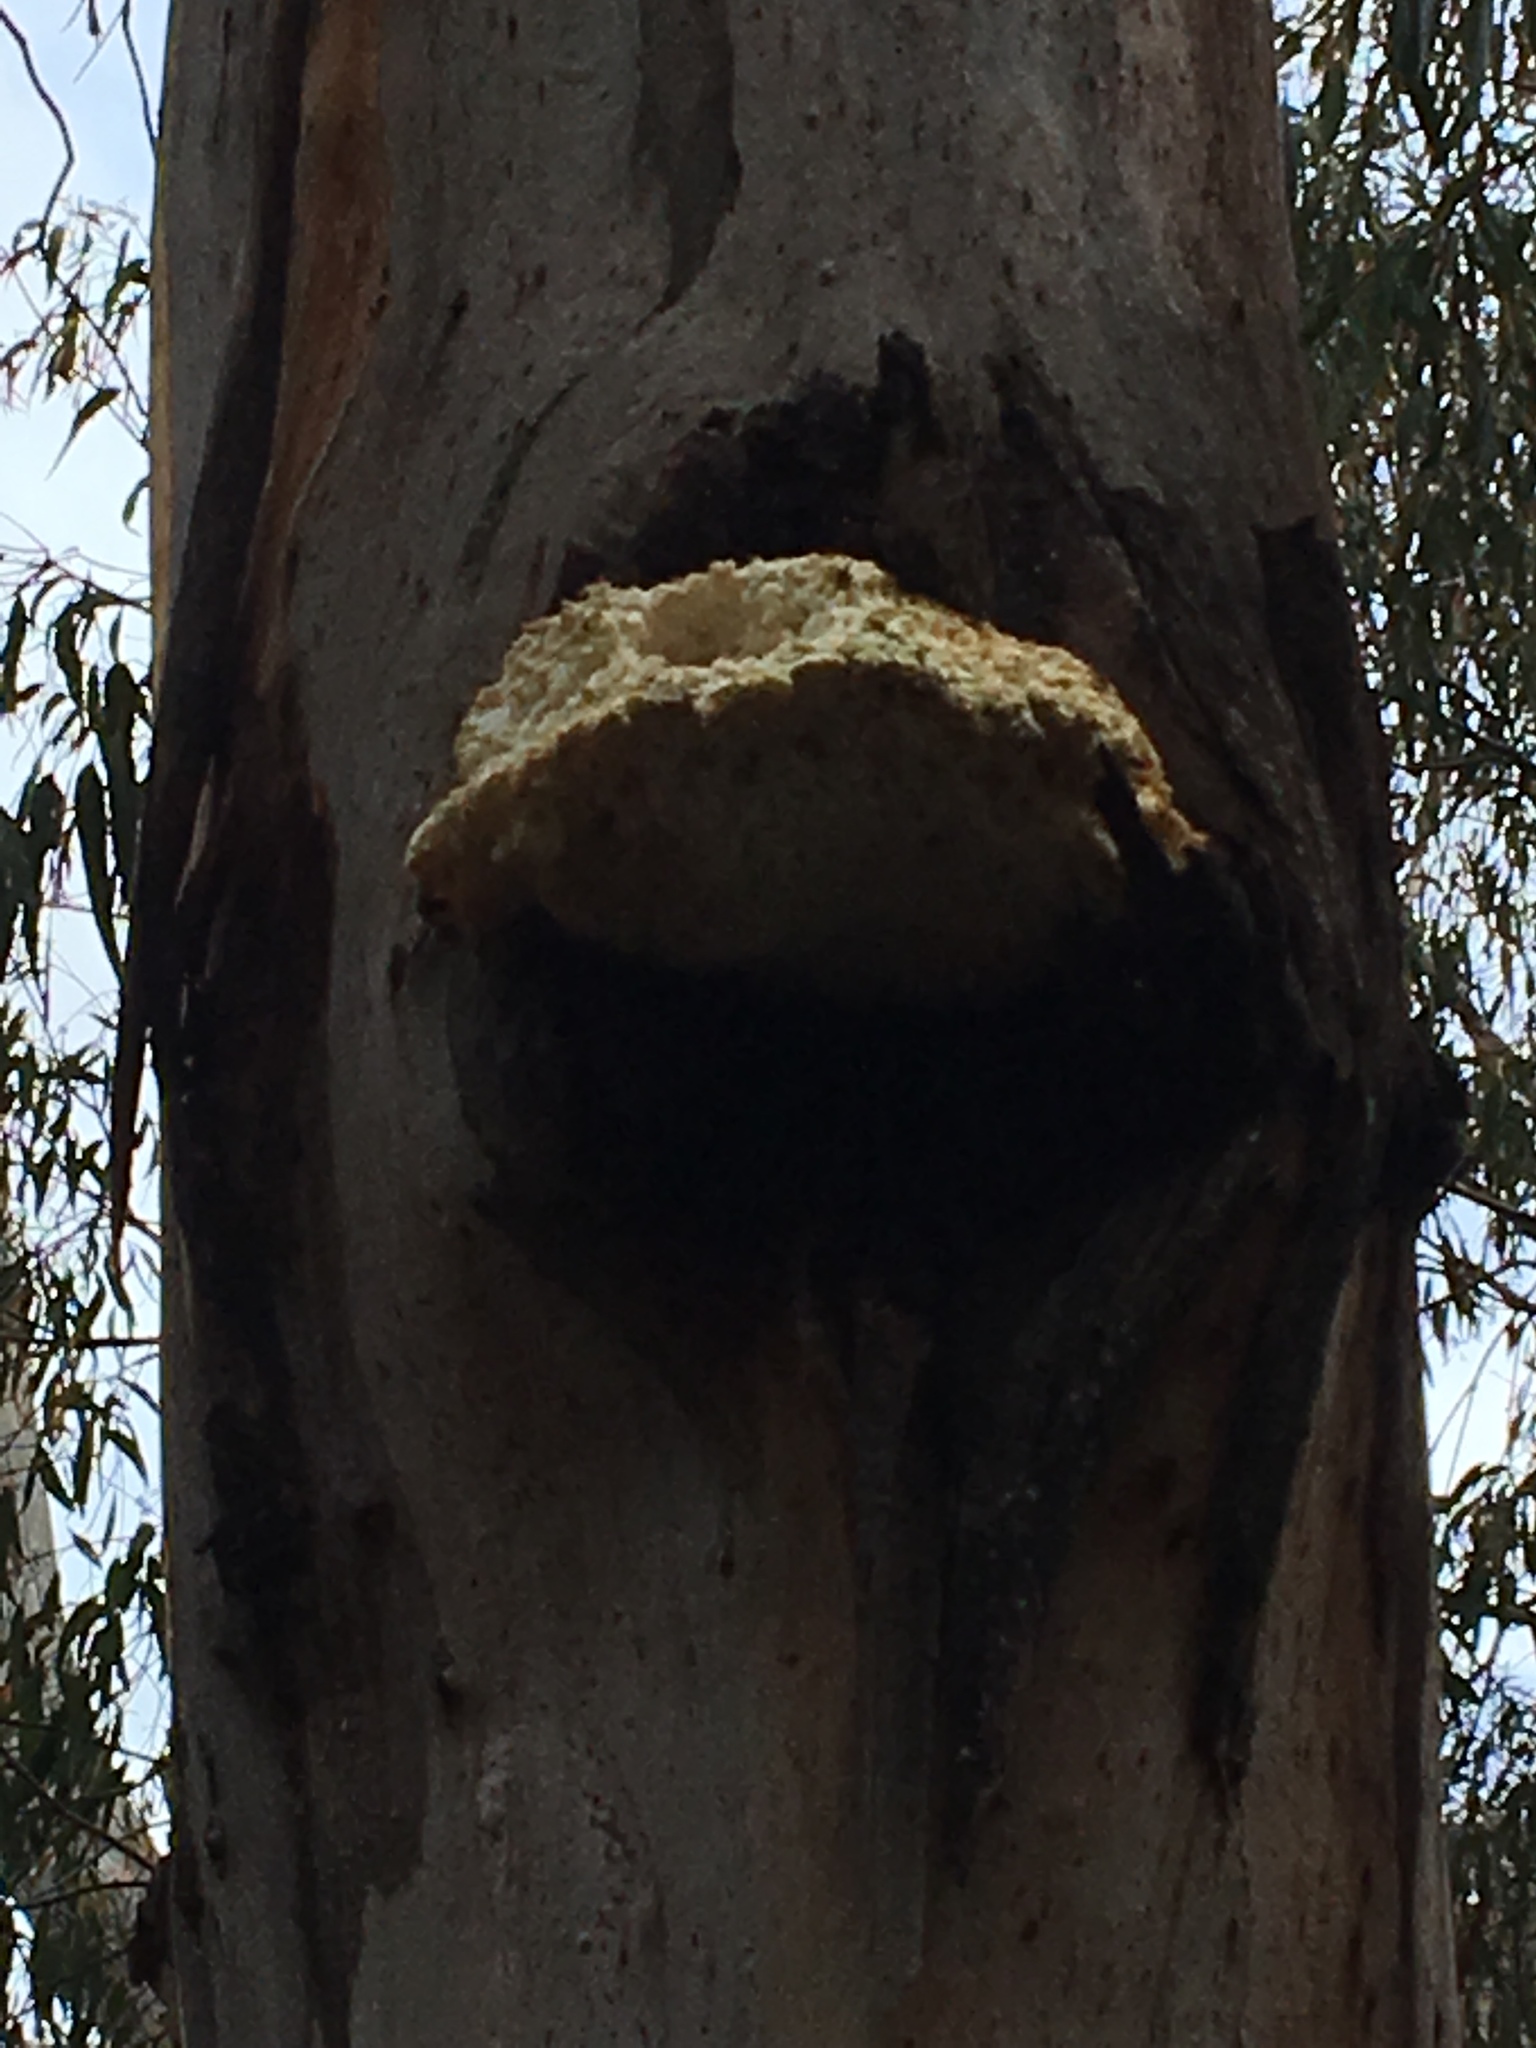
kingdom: Fungi
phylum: Basidiomycota
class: Agaricomycetes
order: Polyporales
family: Laetiporaceae
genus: Laetiporus
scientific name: Laetiporus portentosus
